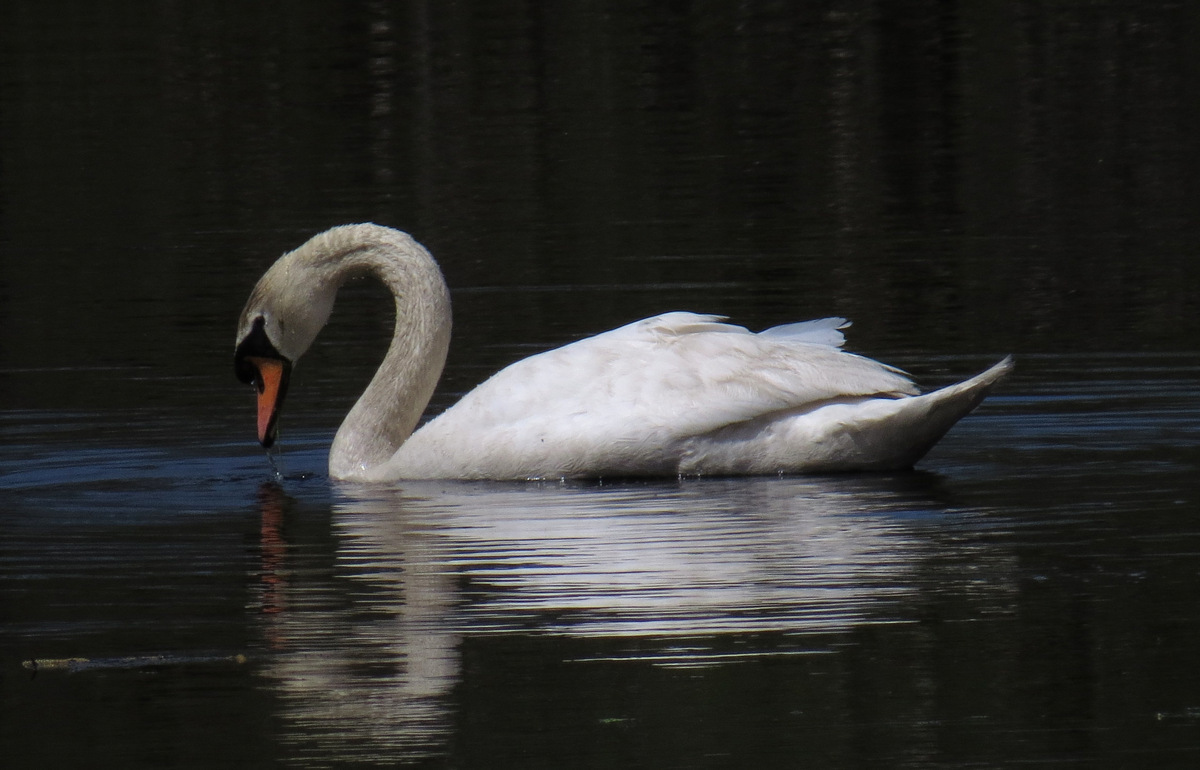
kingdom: Animalia
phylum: Chordata
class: Aves
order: Anseriformes
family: Anatidae
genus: Cygnus
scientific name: Cygnus olor
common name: Mute swan
